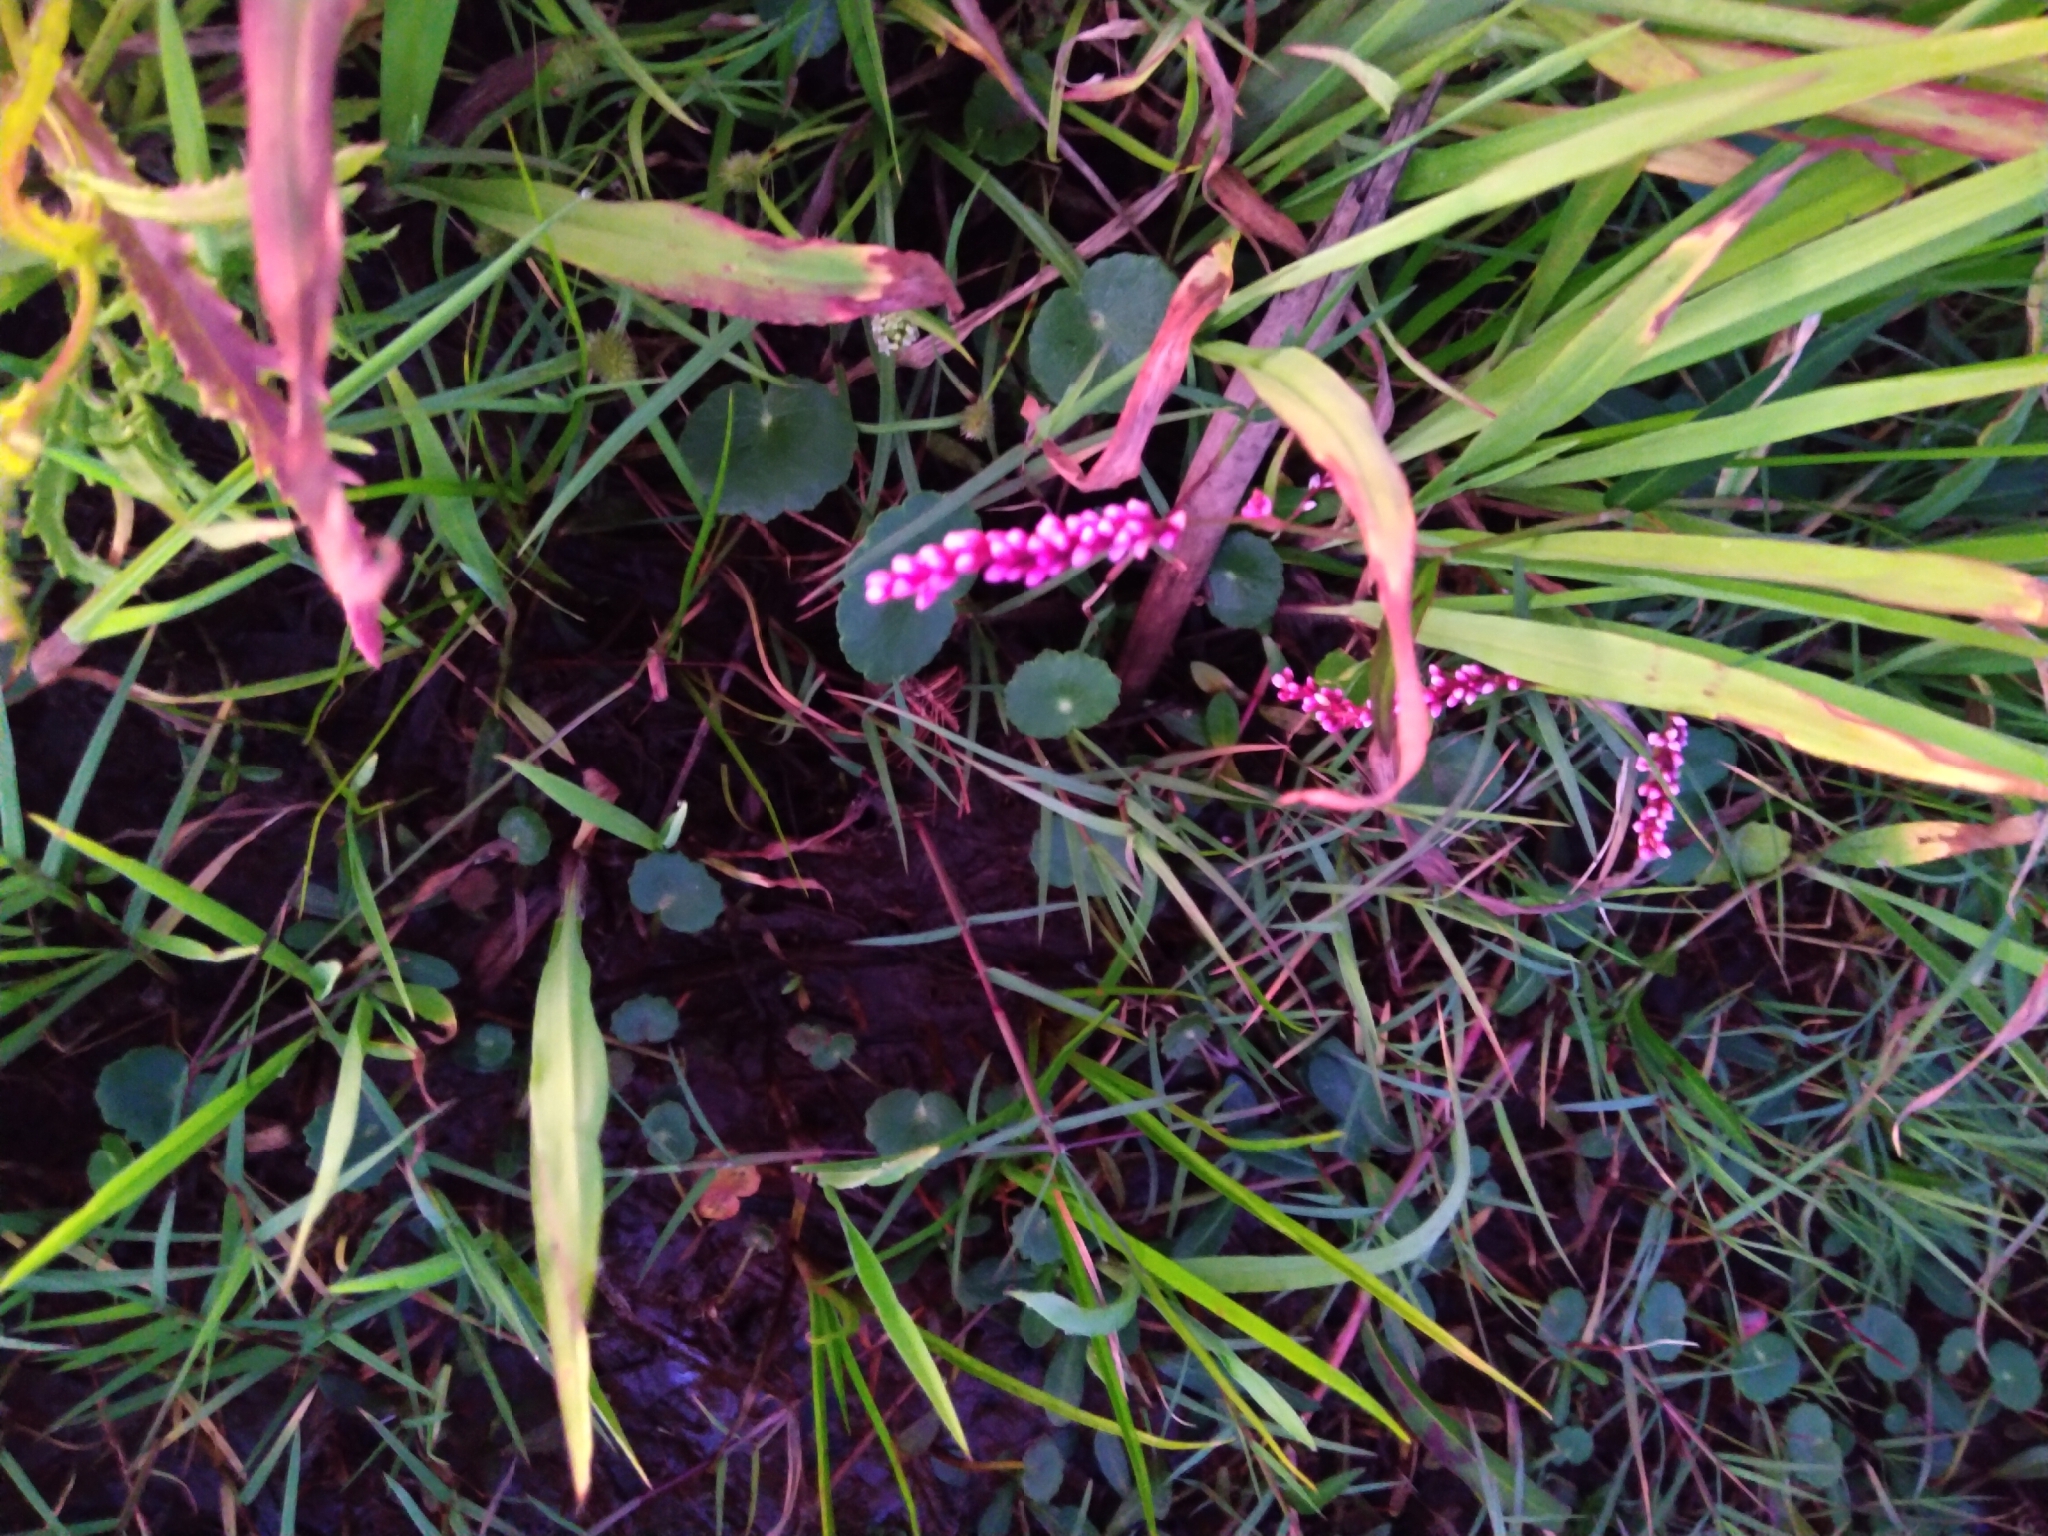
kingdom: Plantae
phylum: Tracheophyta
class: Magnoliopsida
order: Caryophyllales
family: Polygonaceae
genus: Persicaria
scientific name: Persicaria decipiens
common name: Willow-weed
